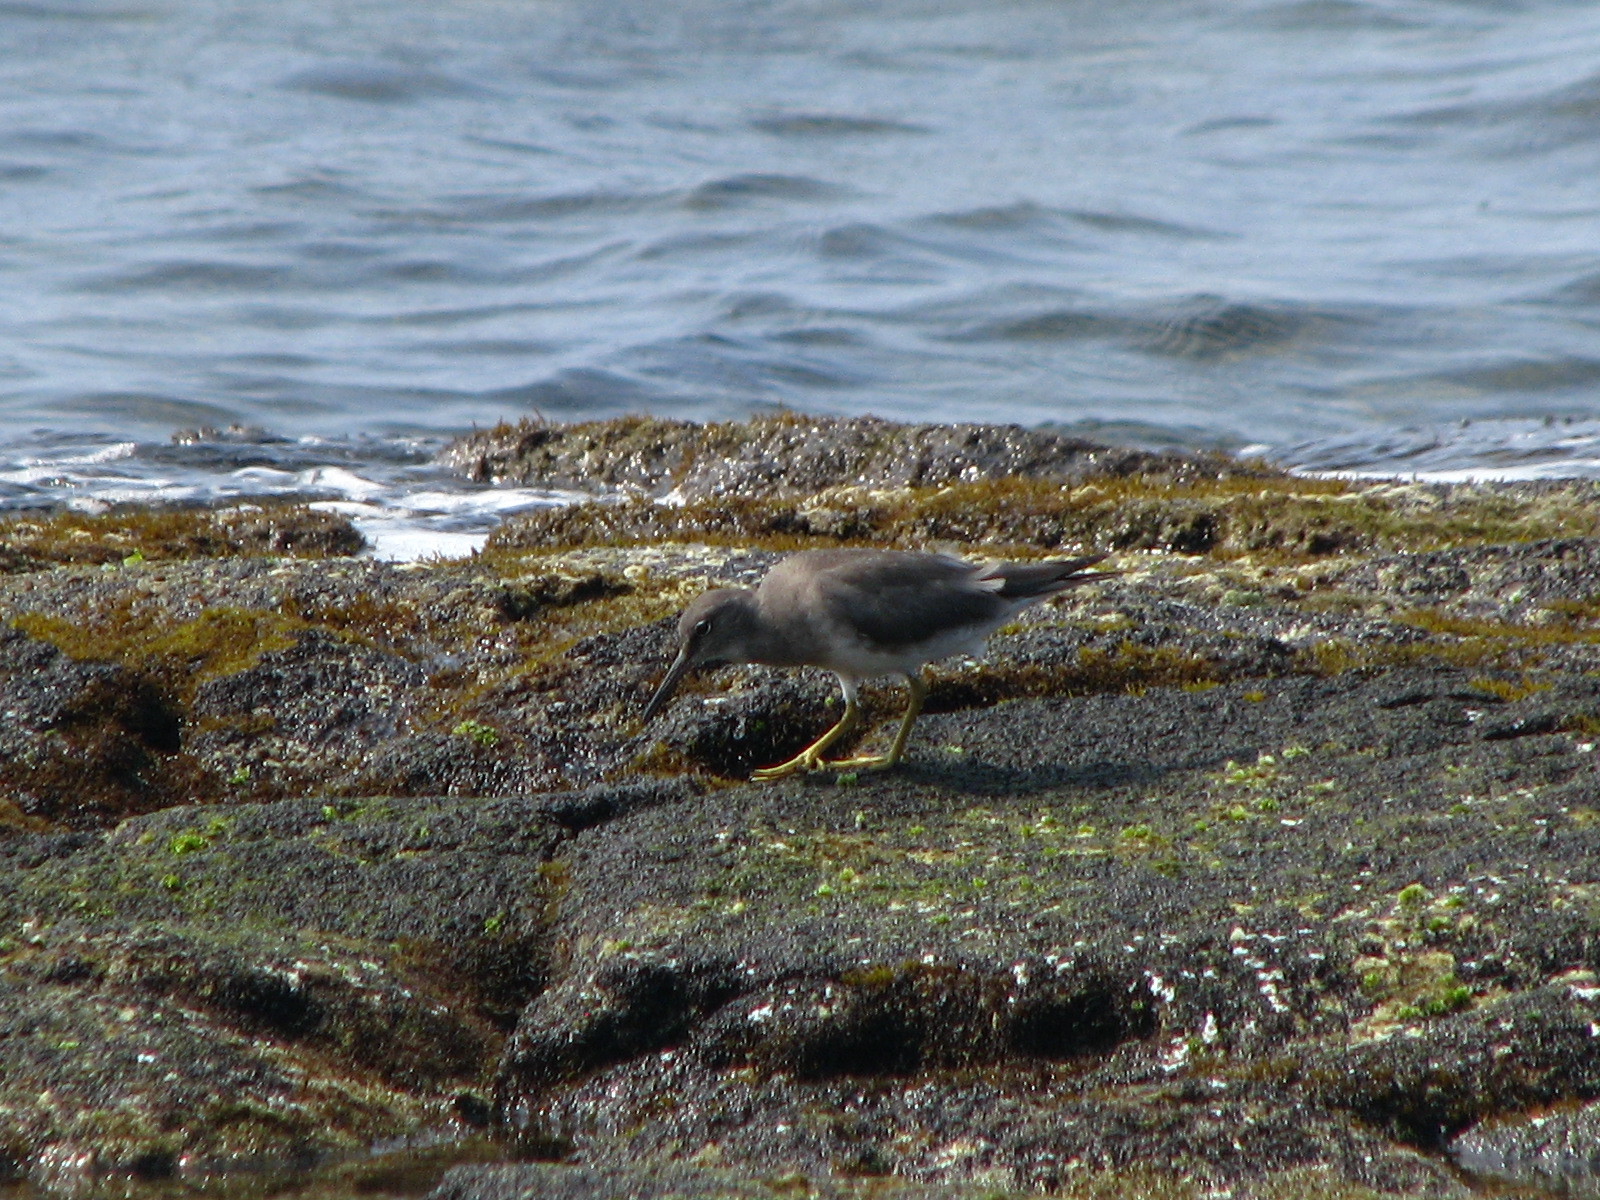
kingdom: Animalia
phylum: Chordata
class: Aves
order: Charadriiformes
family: Scolopacidae
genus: Tringa
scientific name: Tringa incana
